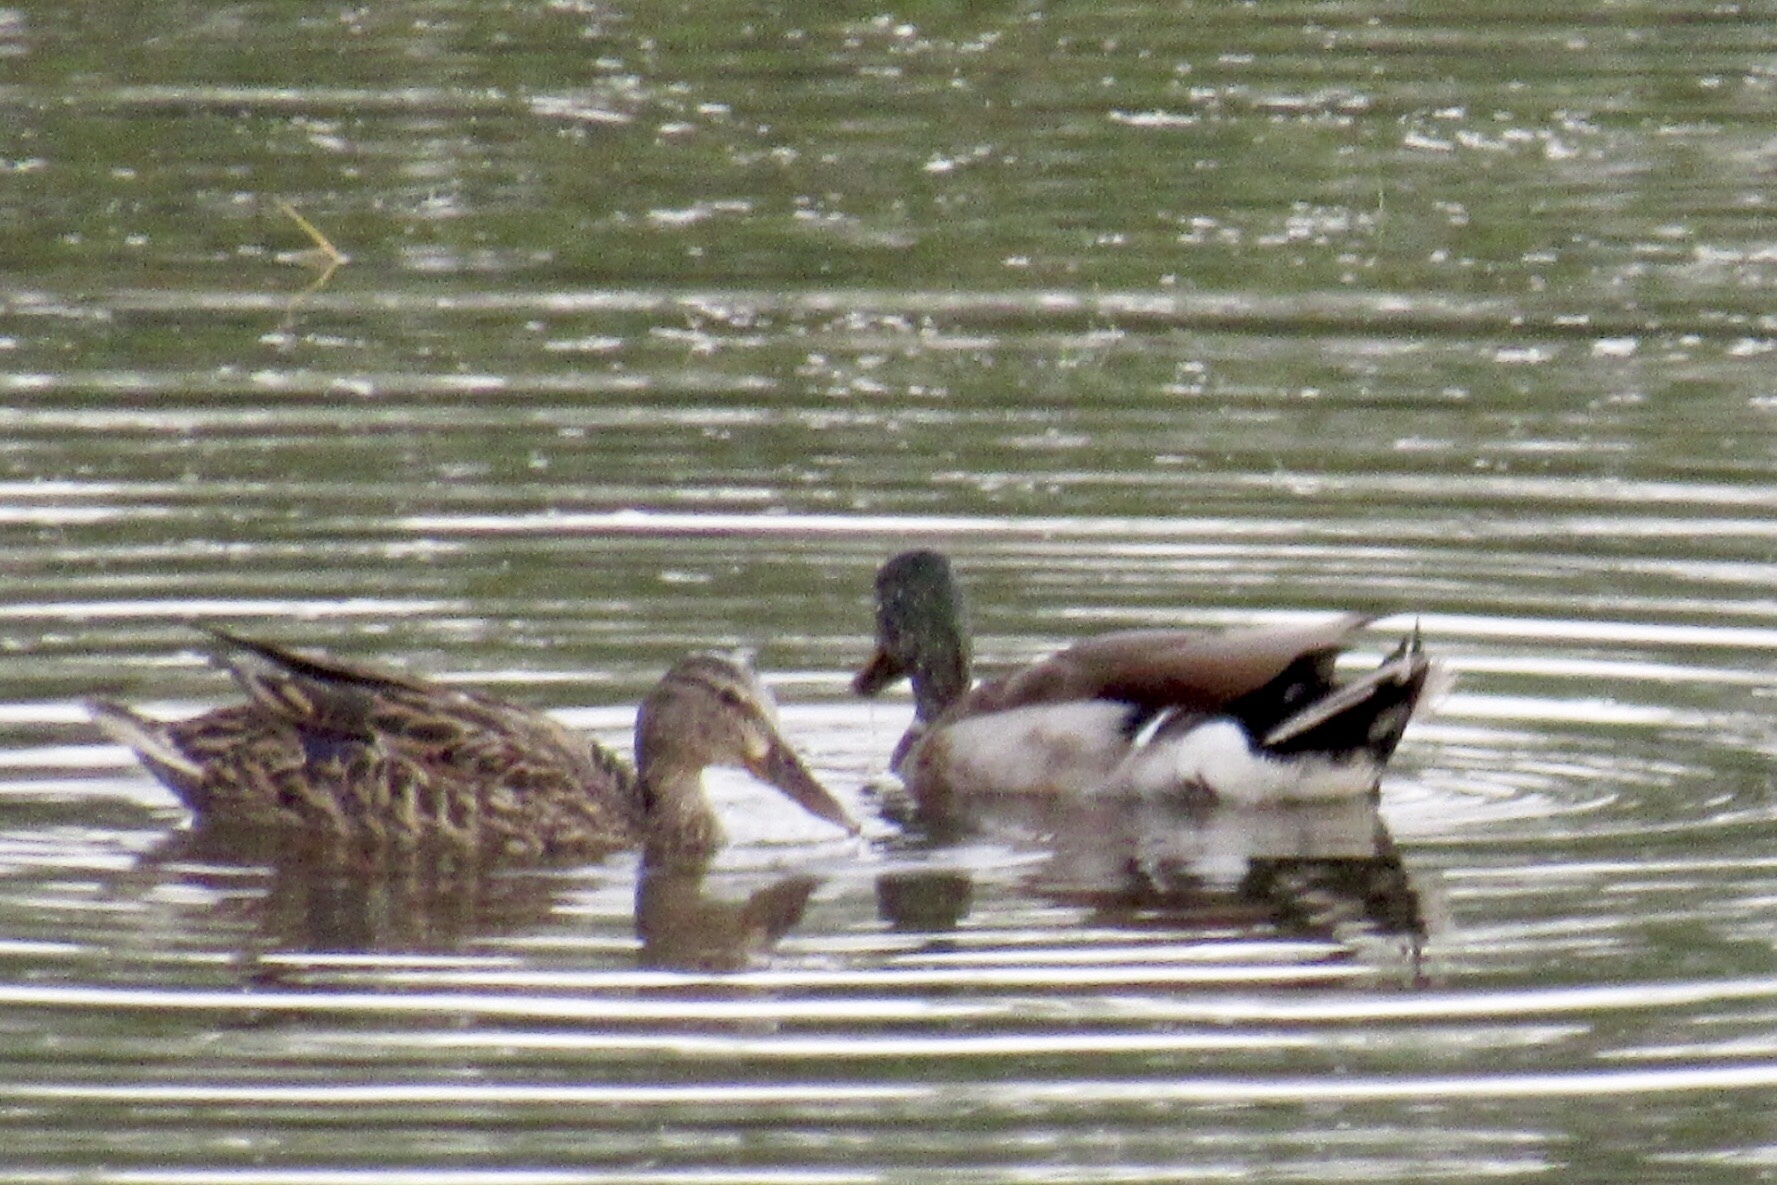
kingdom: Animalia
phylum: Chordata
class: Aves
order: Anseriformes
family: Anatidae
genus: Anas
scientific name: Anas platyrhynchos
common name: Mallard
